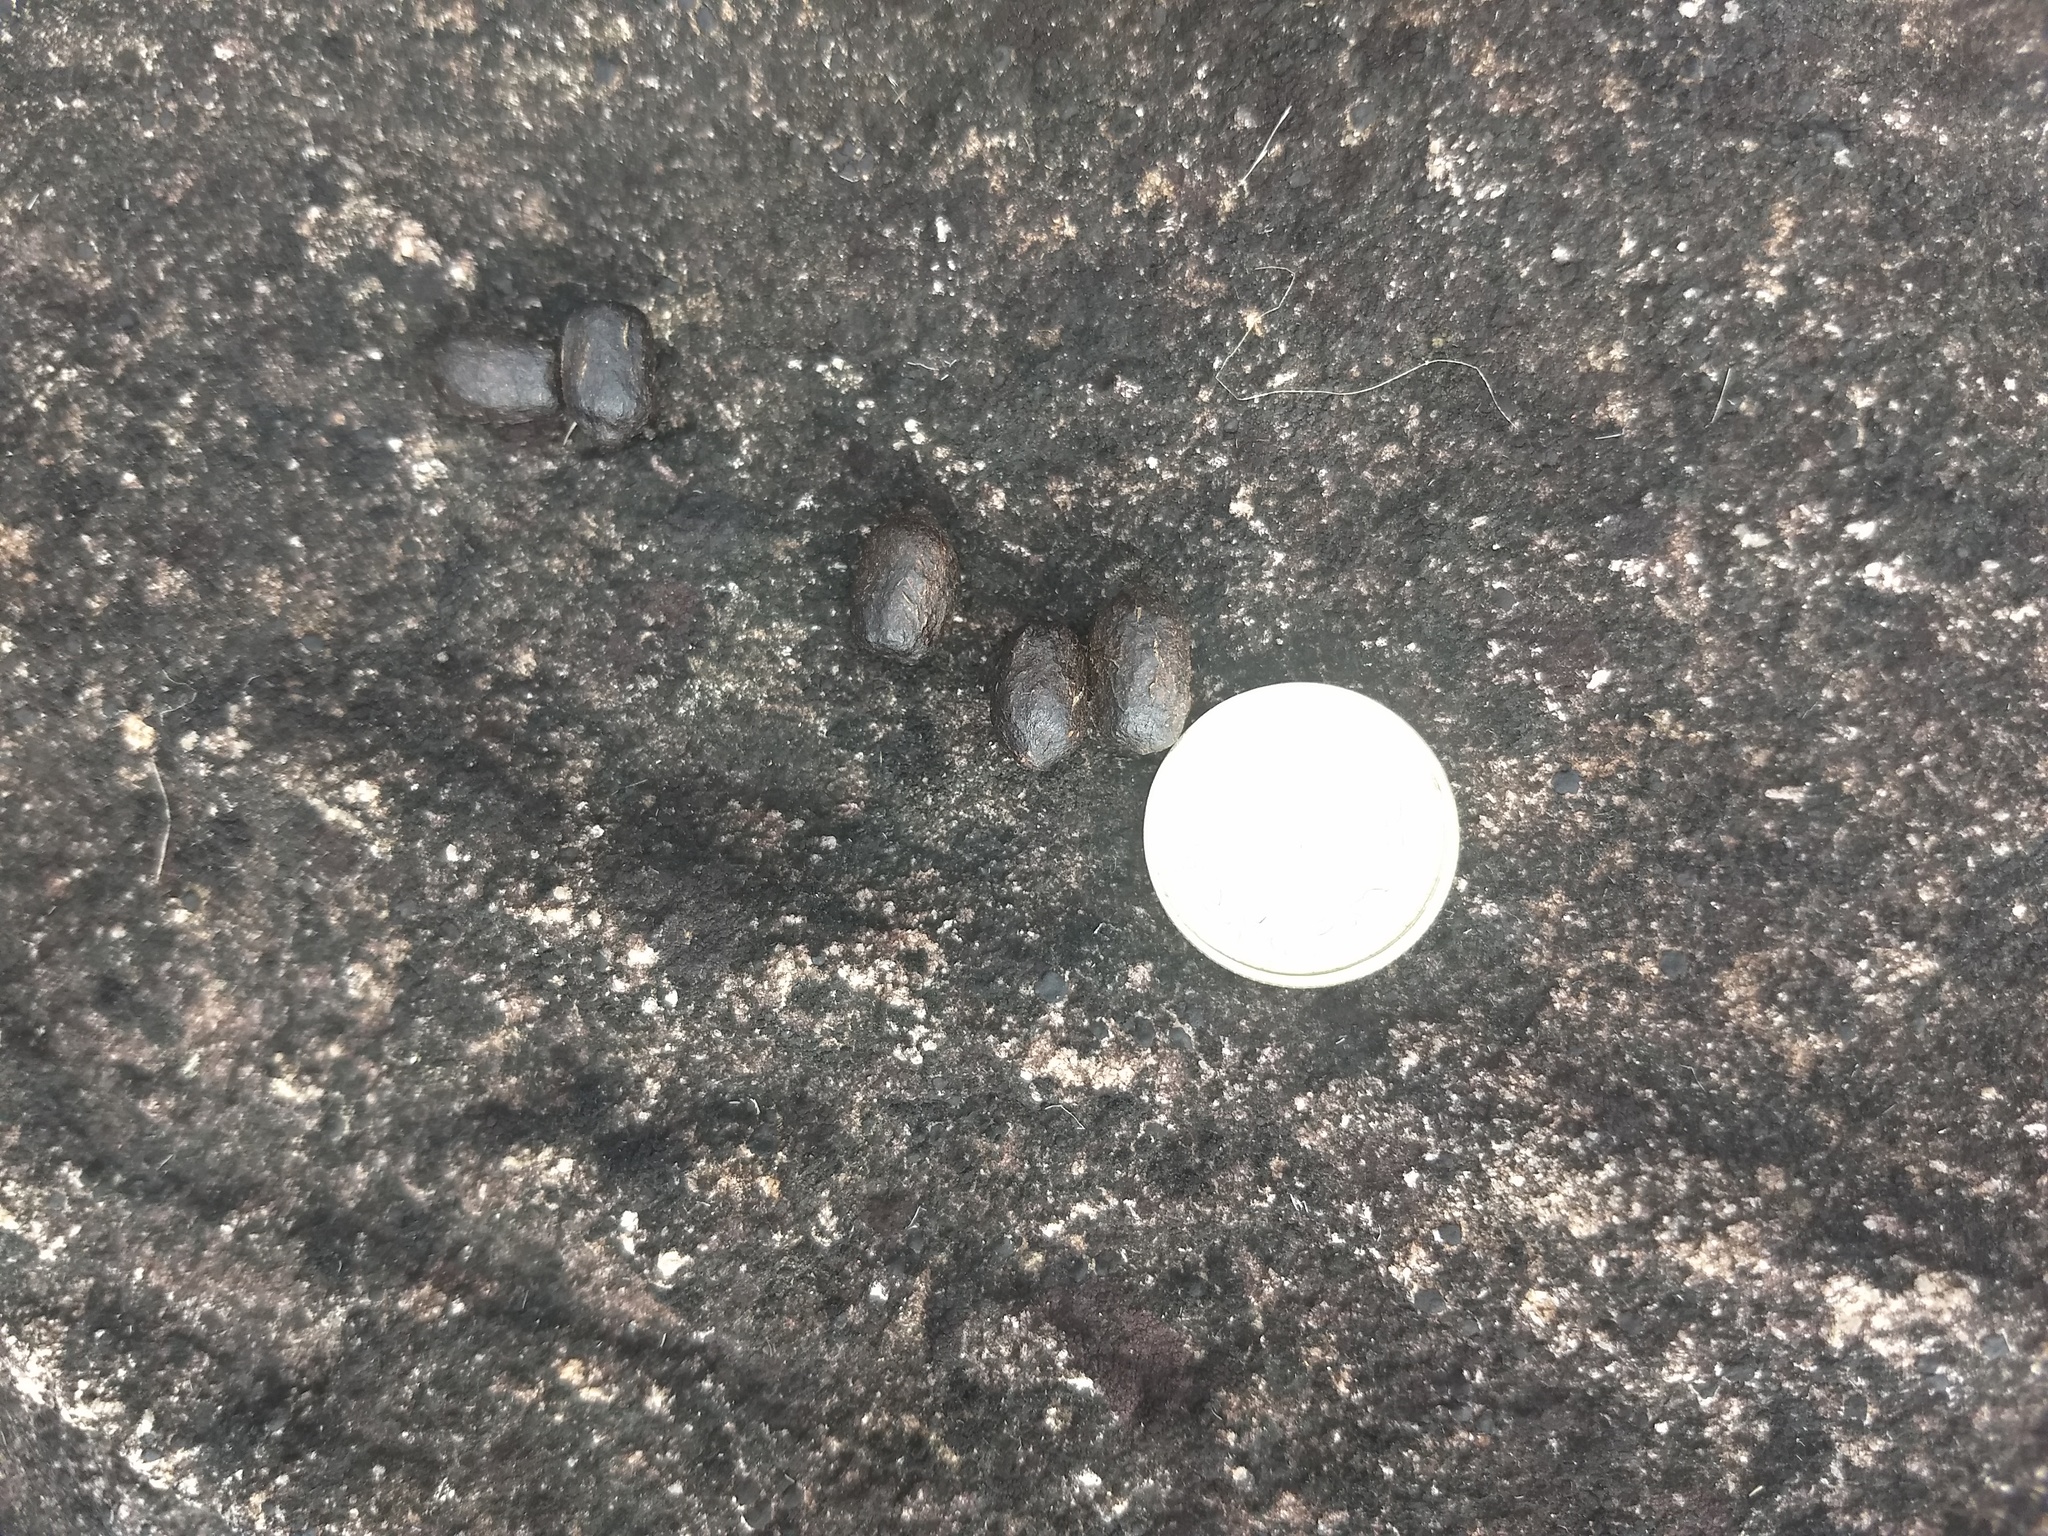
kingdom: Animalia
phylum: Chordata
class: Mammalia
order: Artiodactyla
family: Bovidae
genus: Hemitragus
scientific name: Hemitragus hylocrius
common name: Nilgiri tahr
